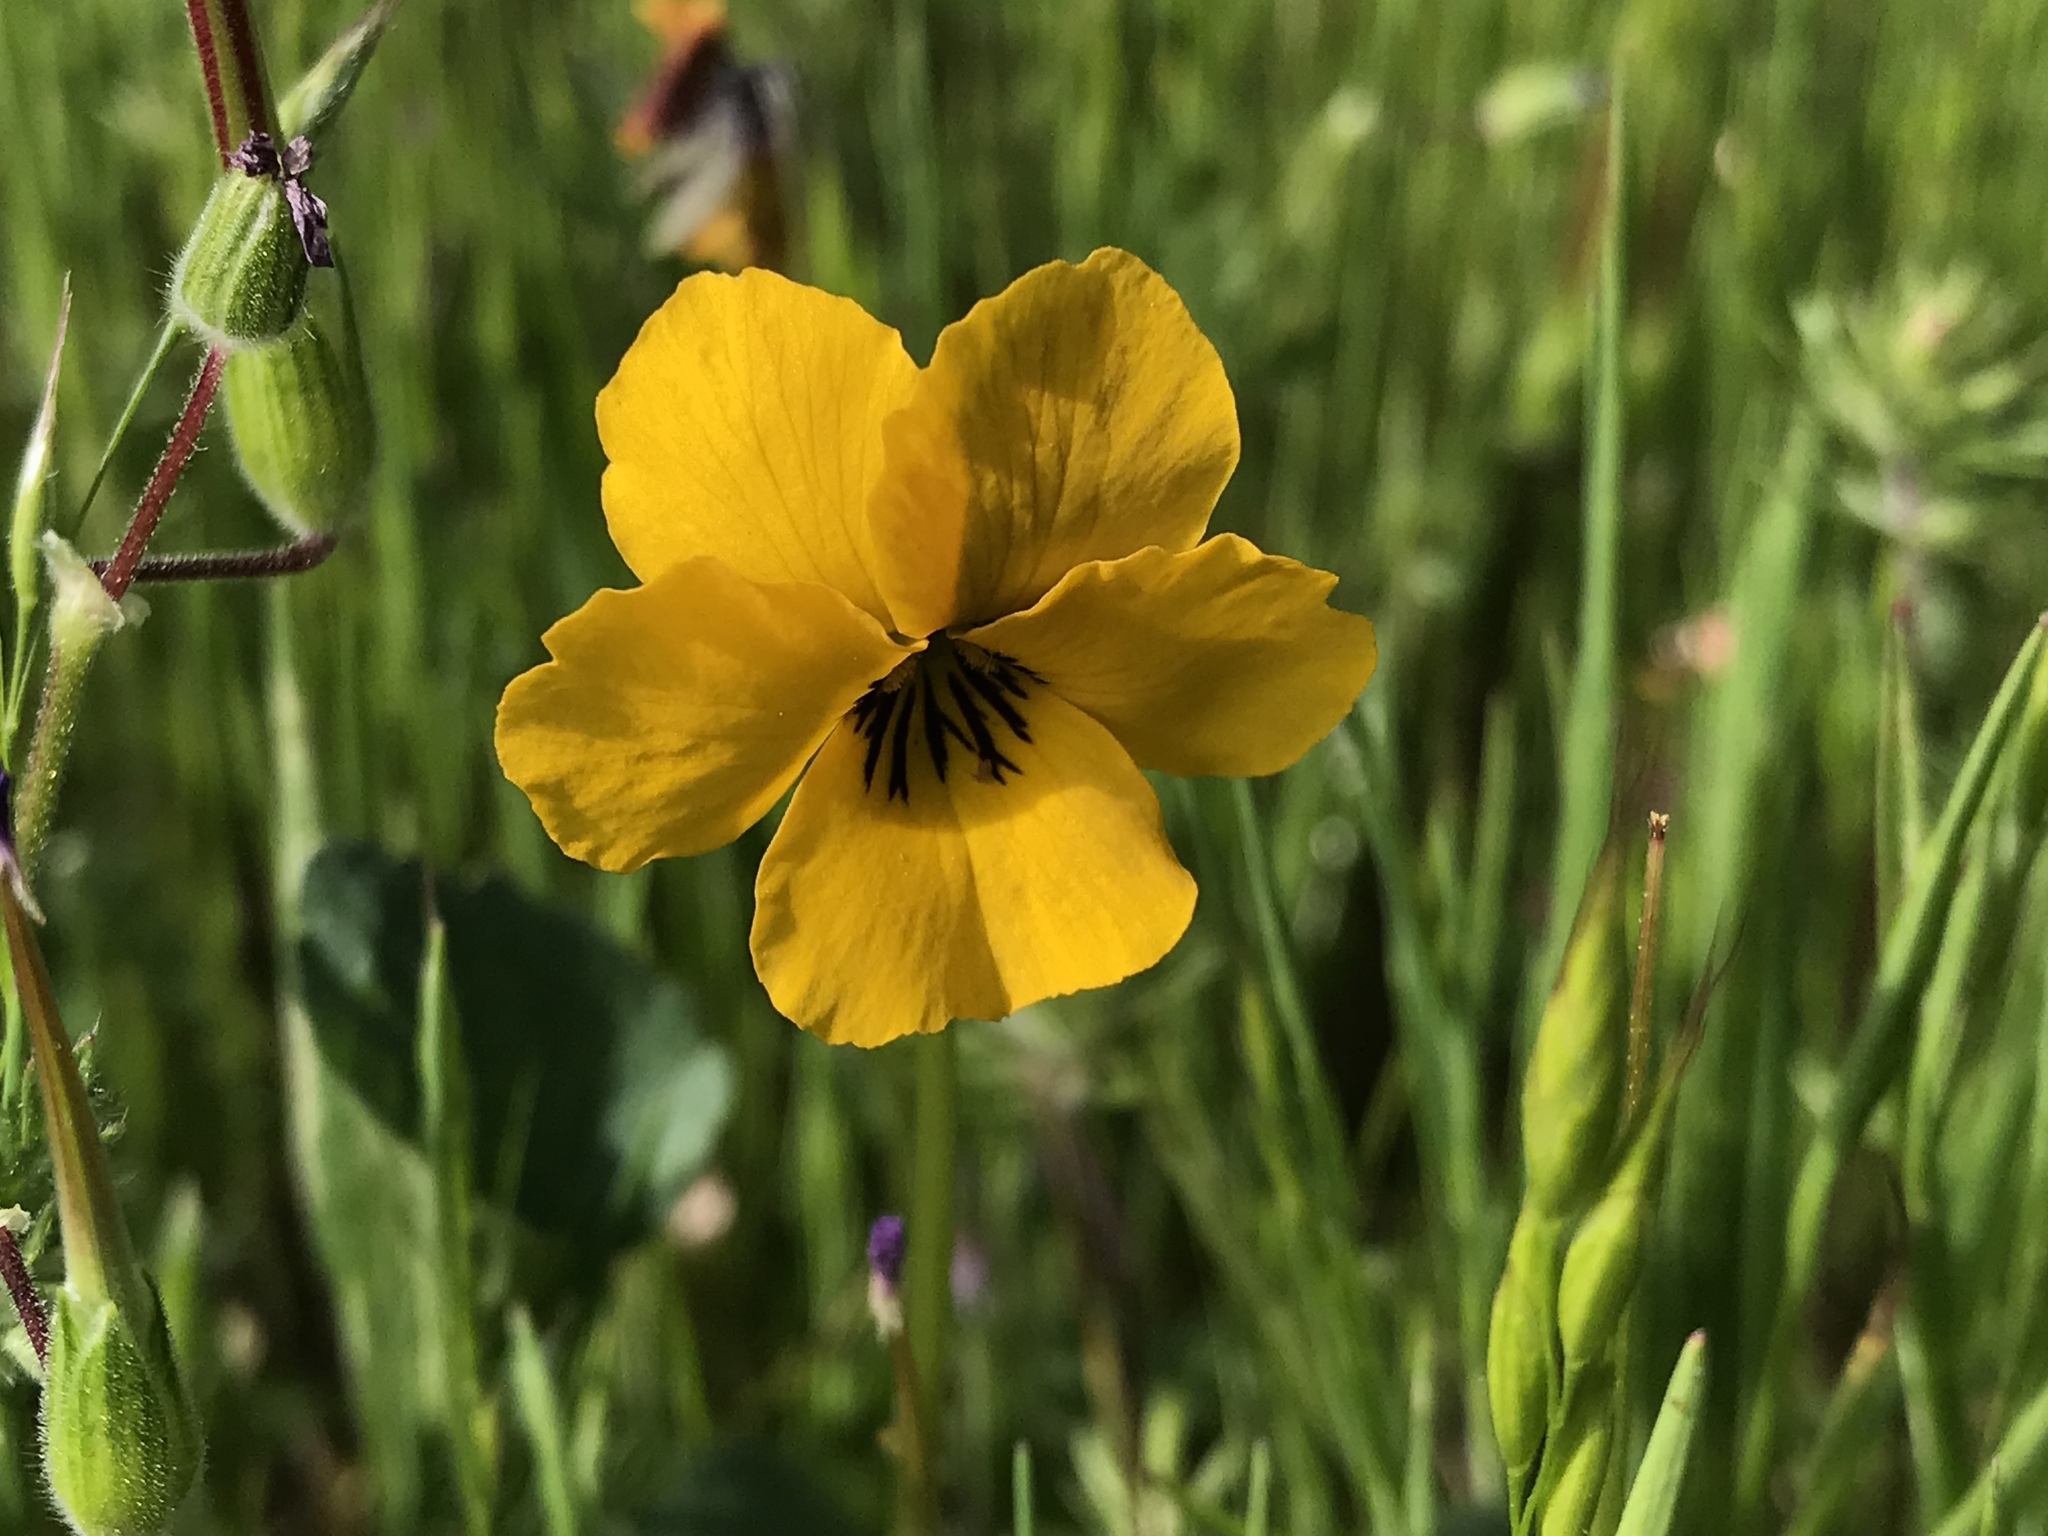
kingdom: Plantae
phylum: Tracheophyta
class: Magnoliopsida
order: Malpighiales
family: Violaceae
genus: Viola
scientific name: Viola pedunculata
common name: California golden violet
